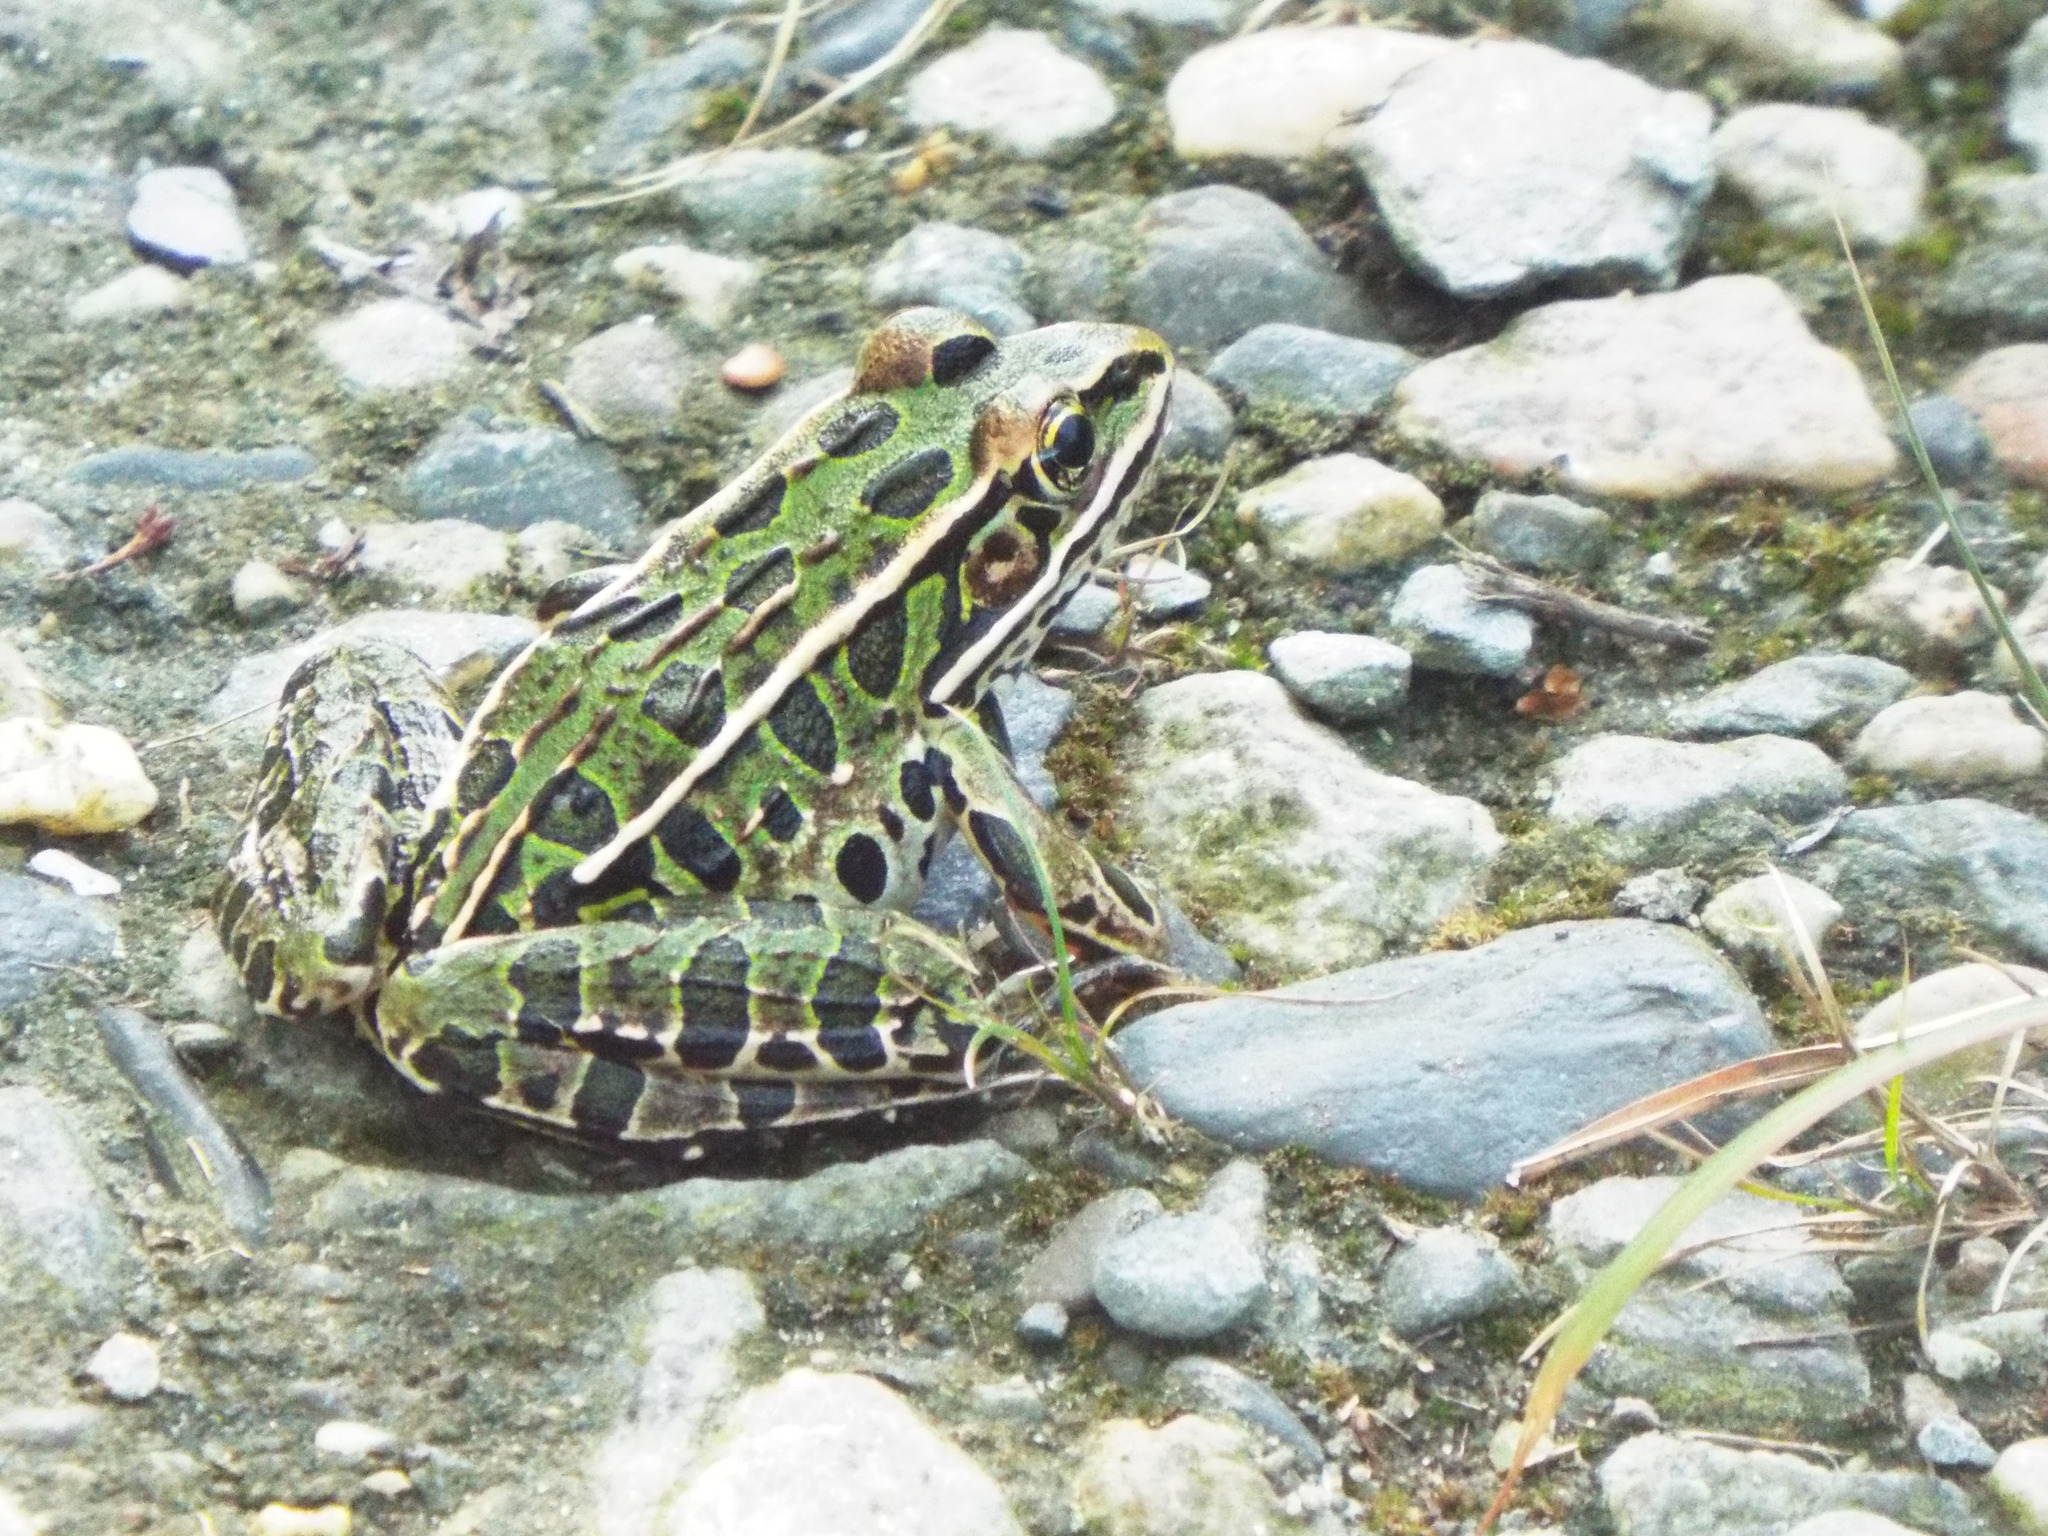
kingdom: Animalia
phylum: Chordata
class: Amphibia
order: Anura
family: Ranidae
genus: Lithobates
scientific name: Lithobates pipiens
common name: Northern leopard frog
